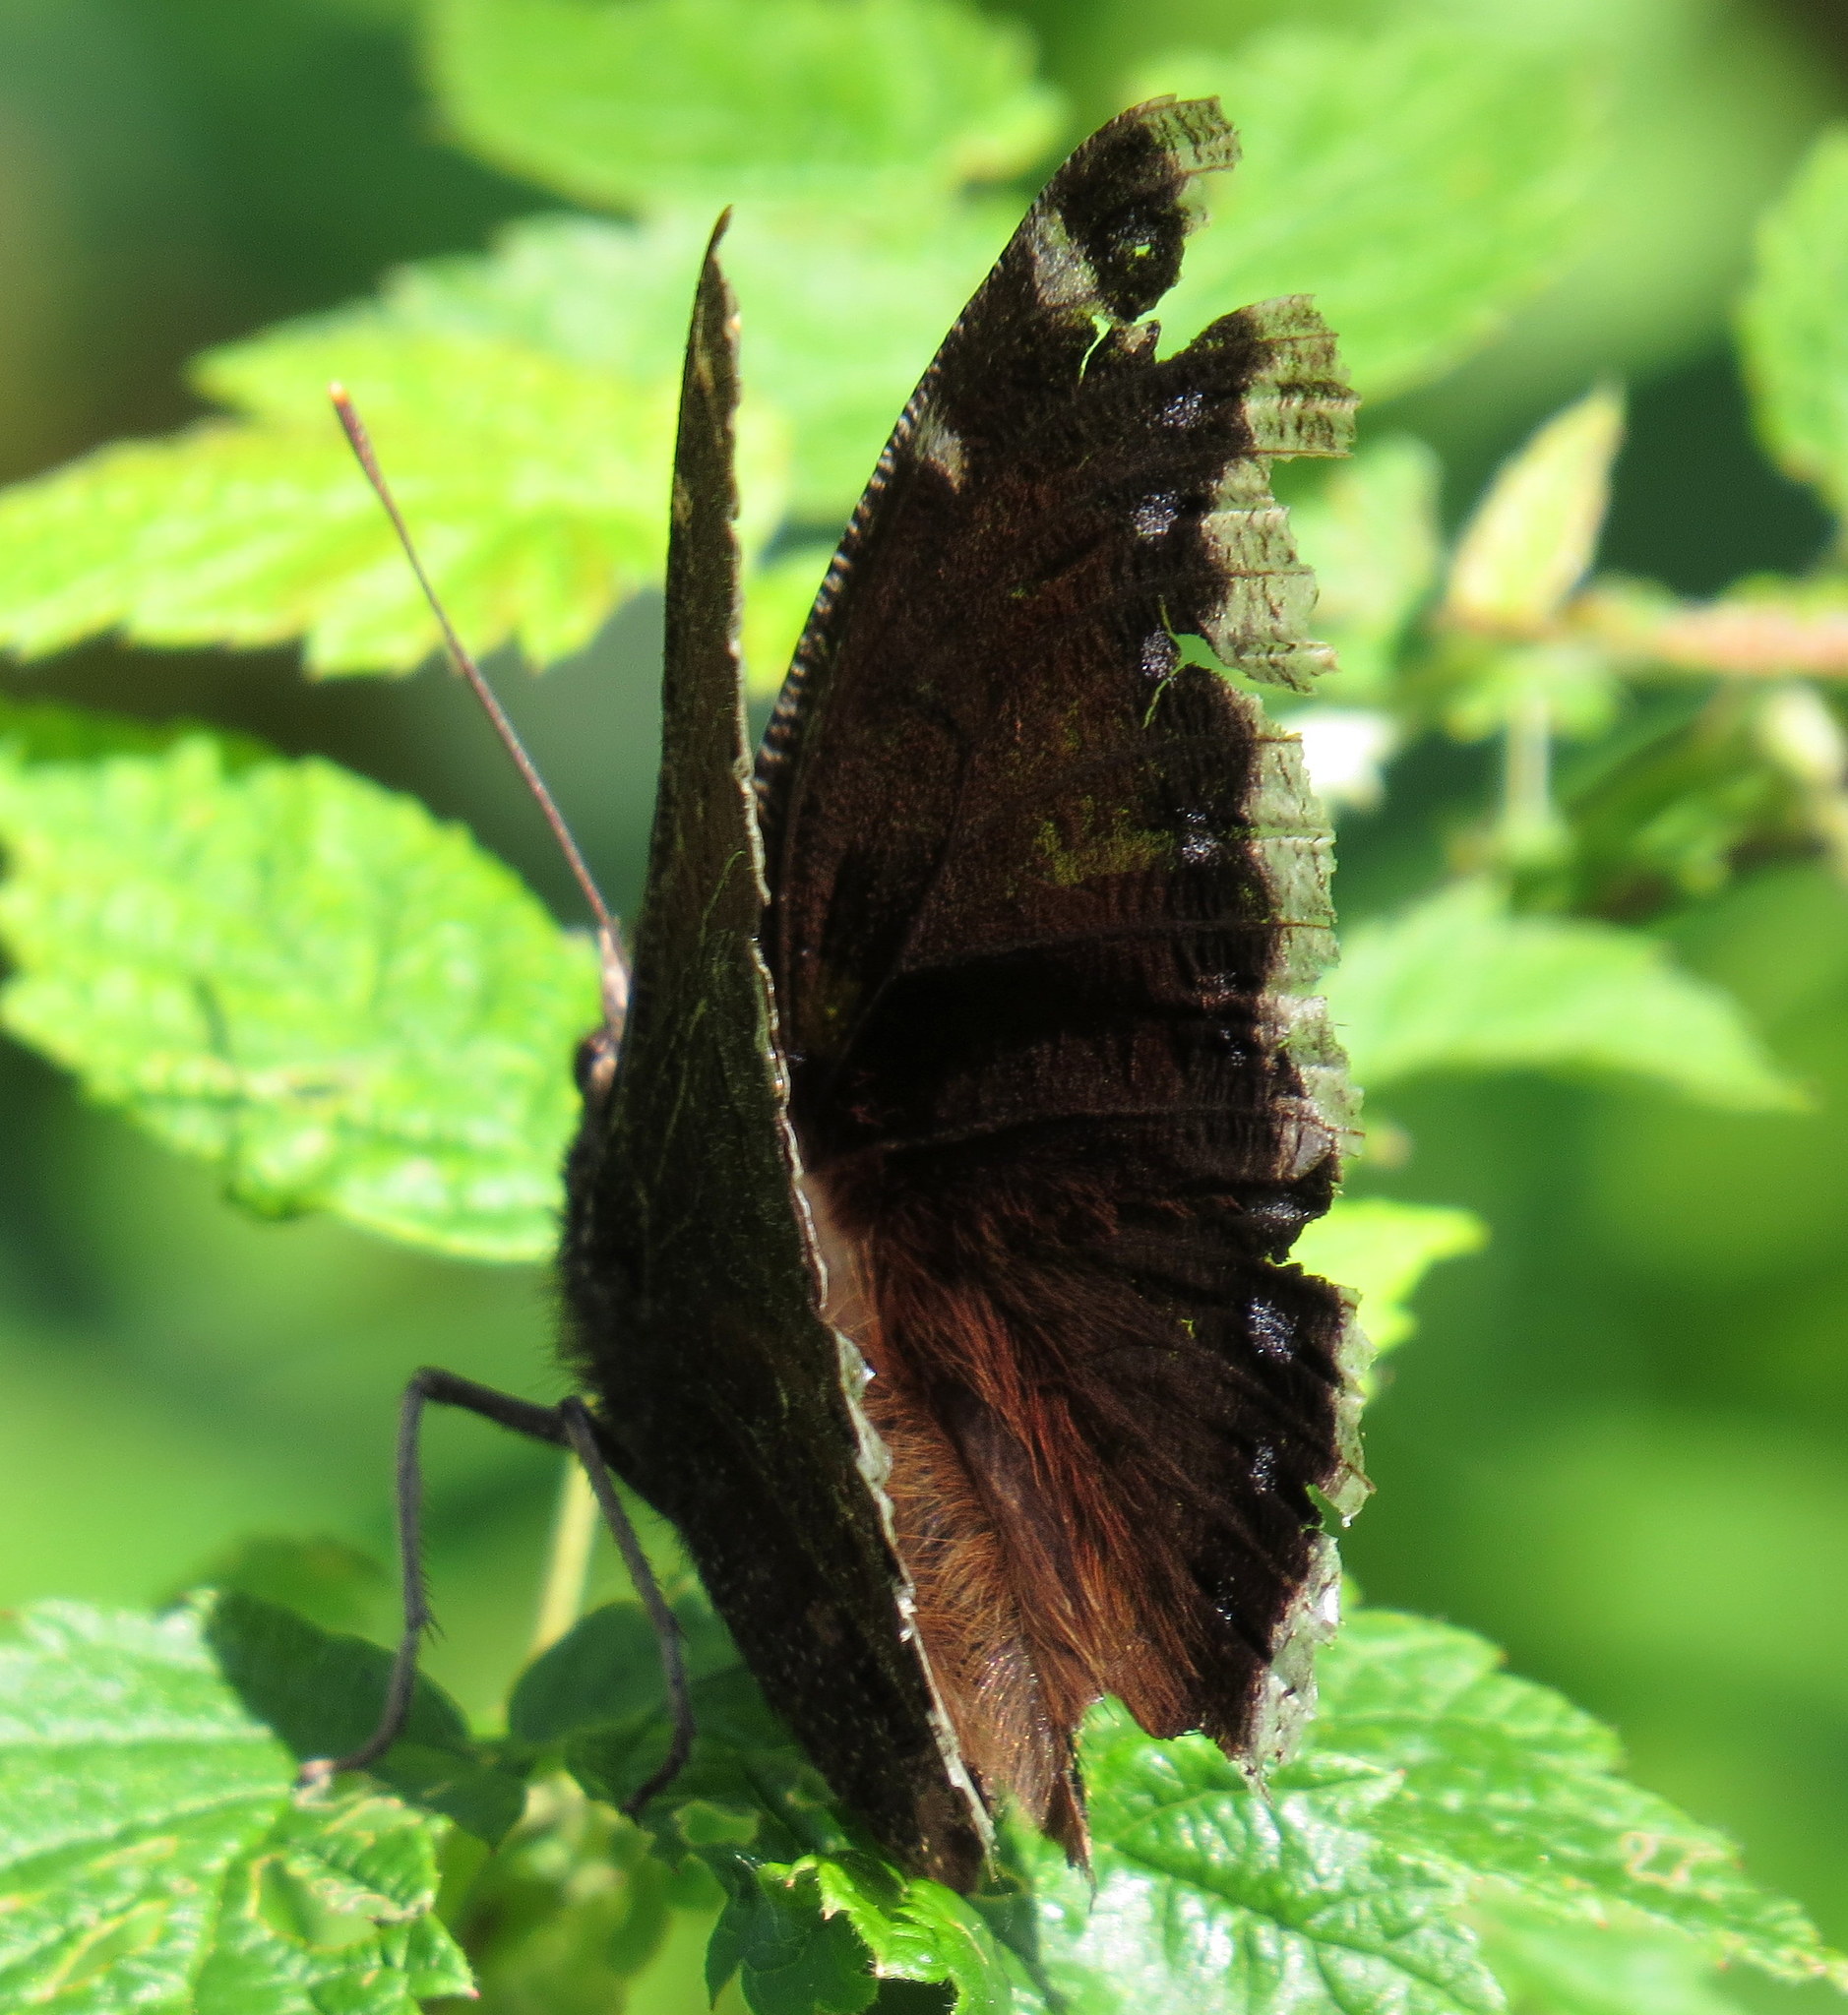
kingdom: Animalia
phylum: Arthropoda
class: Insecta
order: Lepidoptera
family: Nymphalidae
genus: Nymphalis
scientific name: Nymphalis antiopa
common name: Camberwell beauty
